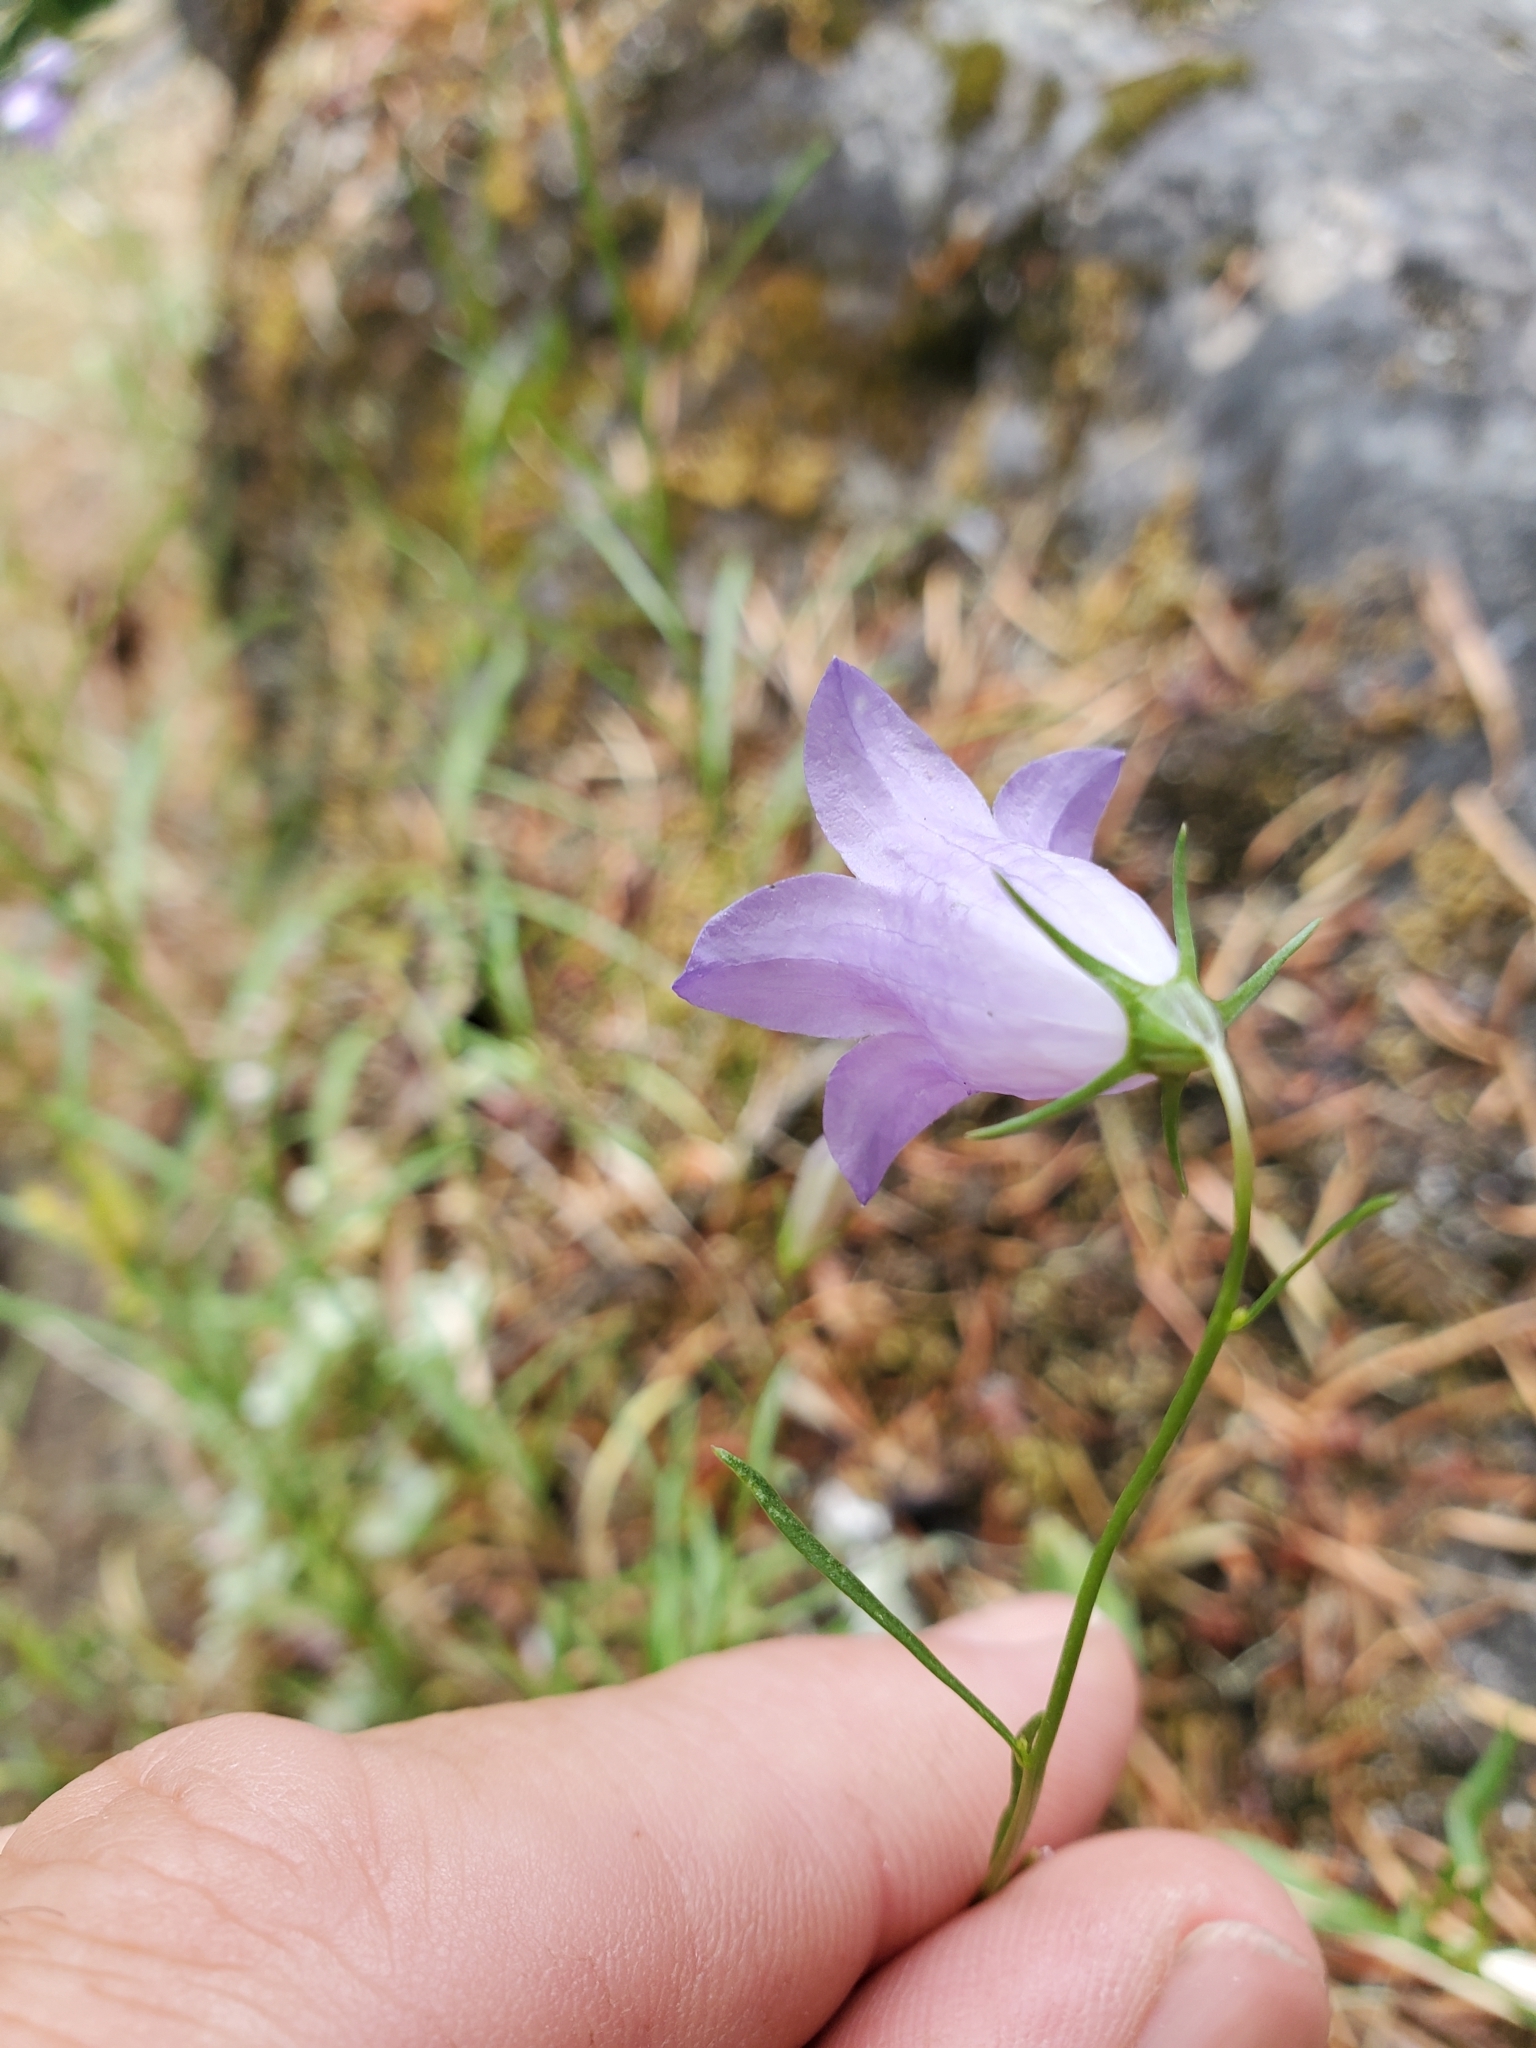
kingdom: Plantae
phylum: Tracheophyta
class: Magnoliopsida
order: Asterales
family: Campanulaceae
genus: Campanula
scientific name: Campanula alaskana
